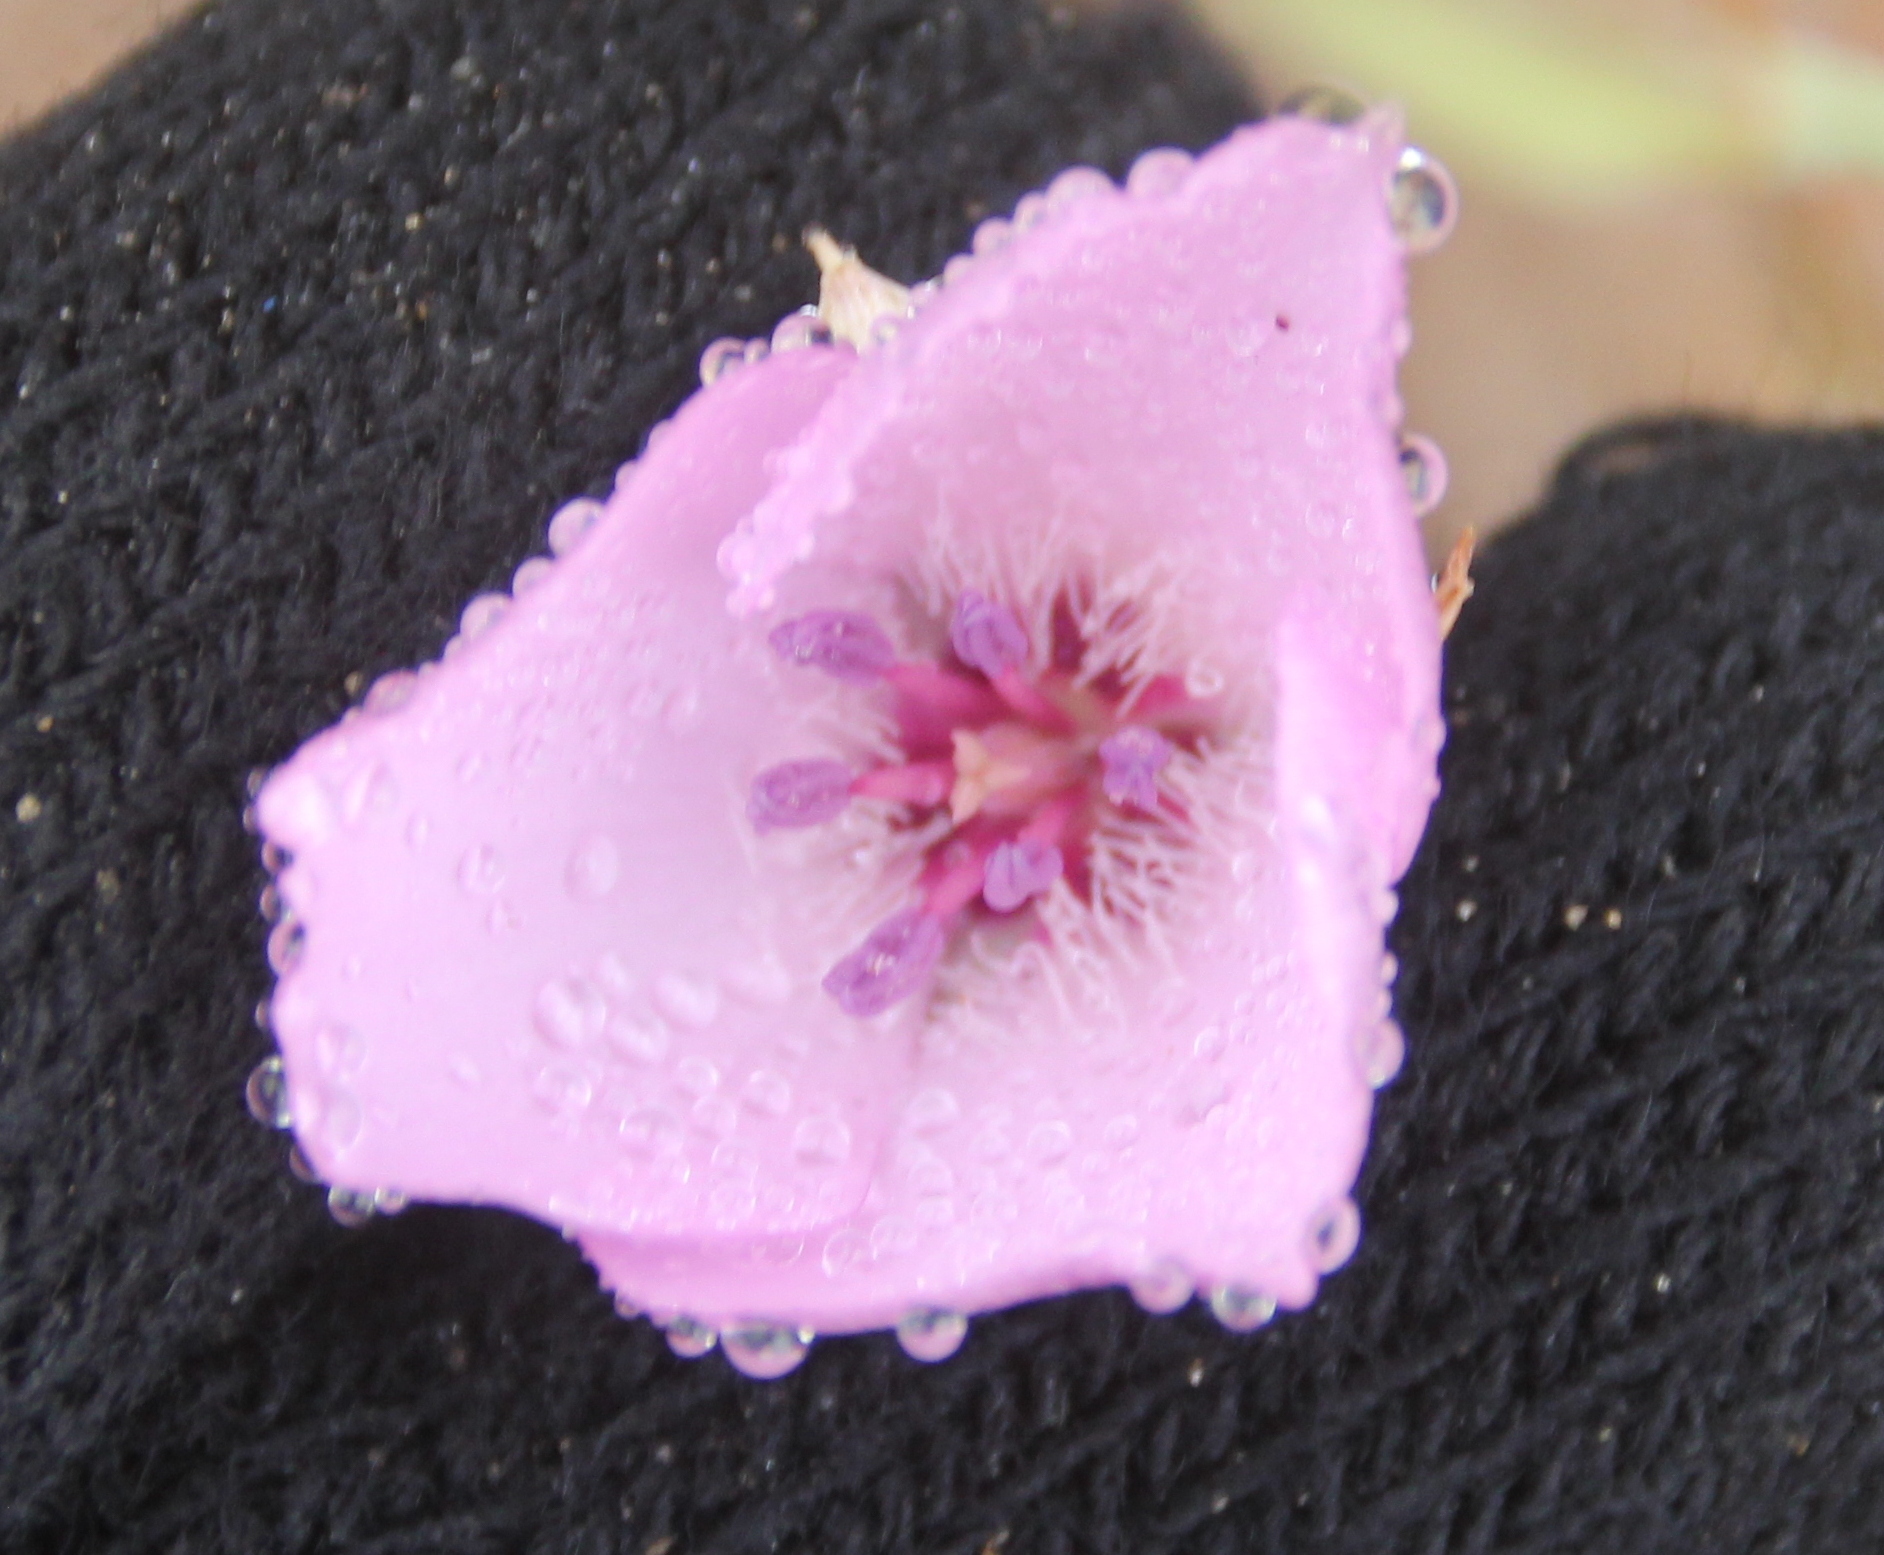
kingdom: Plantae
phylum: Tracheophyta
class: Liliopsida
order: Liliales
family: Liliaceae
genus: Calochortus
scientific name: Calochortus splendens
